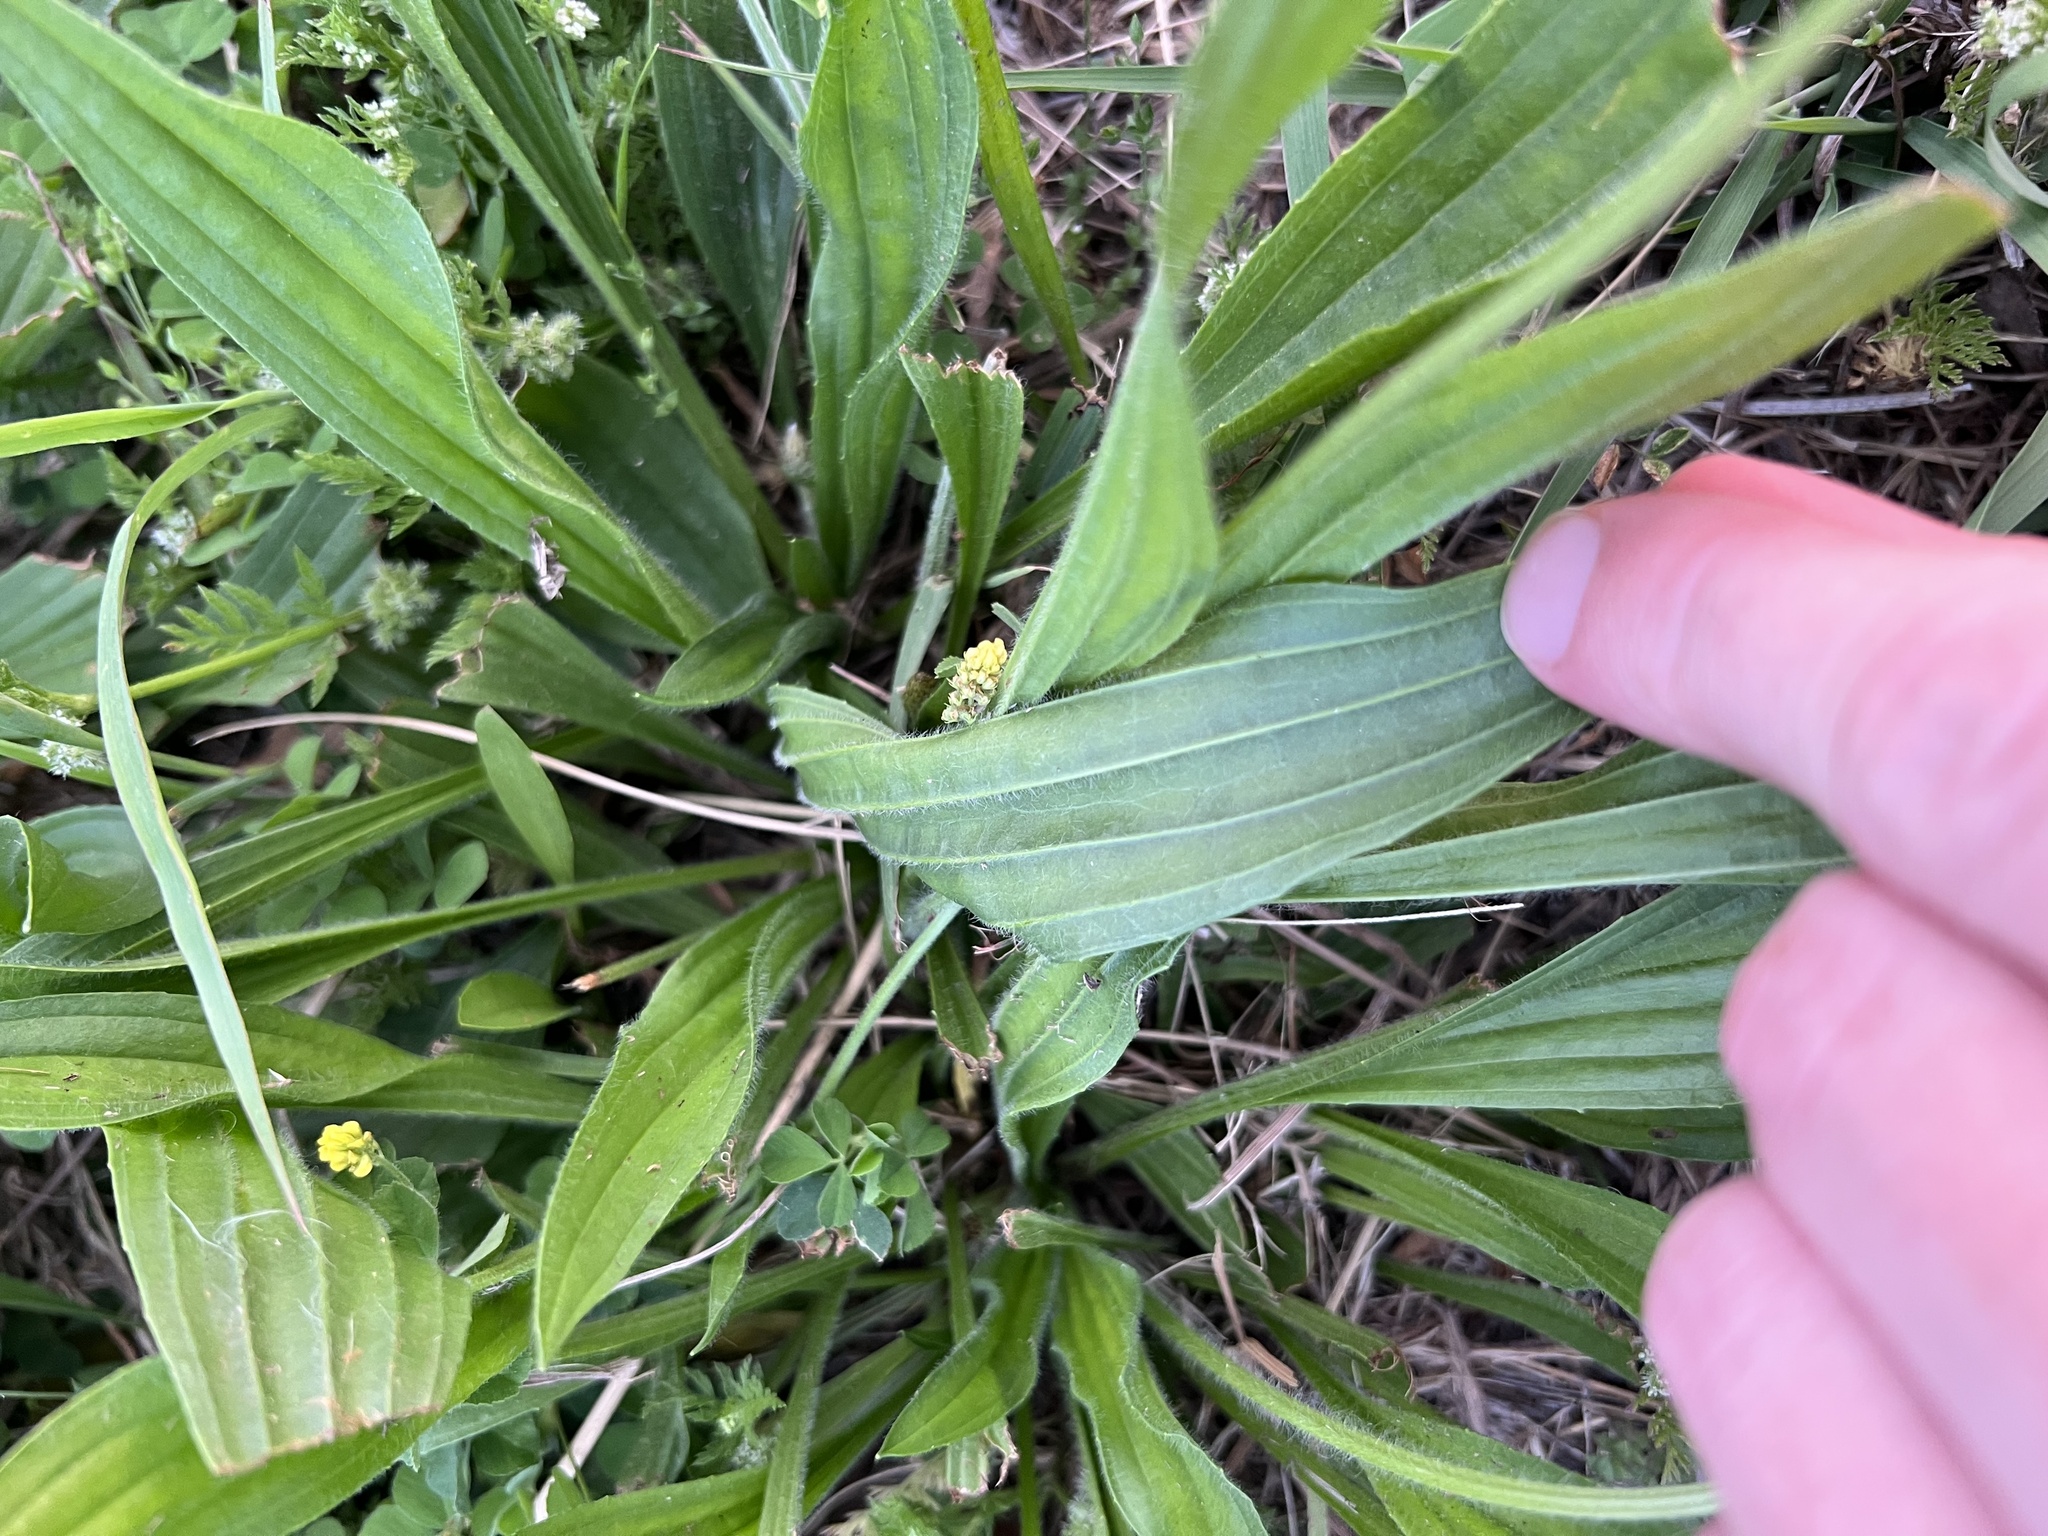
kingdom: Plantae
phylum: Tracheophyta
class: Magnoliopsida
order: Lamiales
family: Plantaginaceae
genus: Plantago
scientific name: Plantago lanceolata
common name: Ribwort plantain
